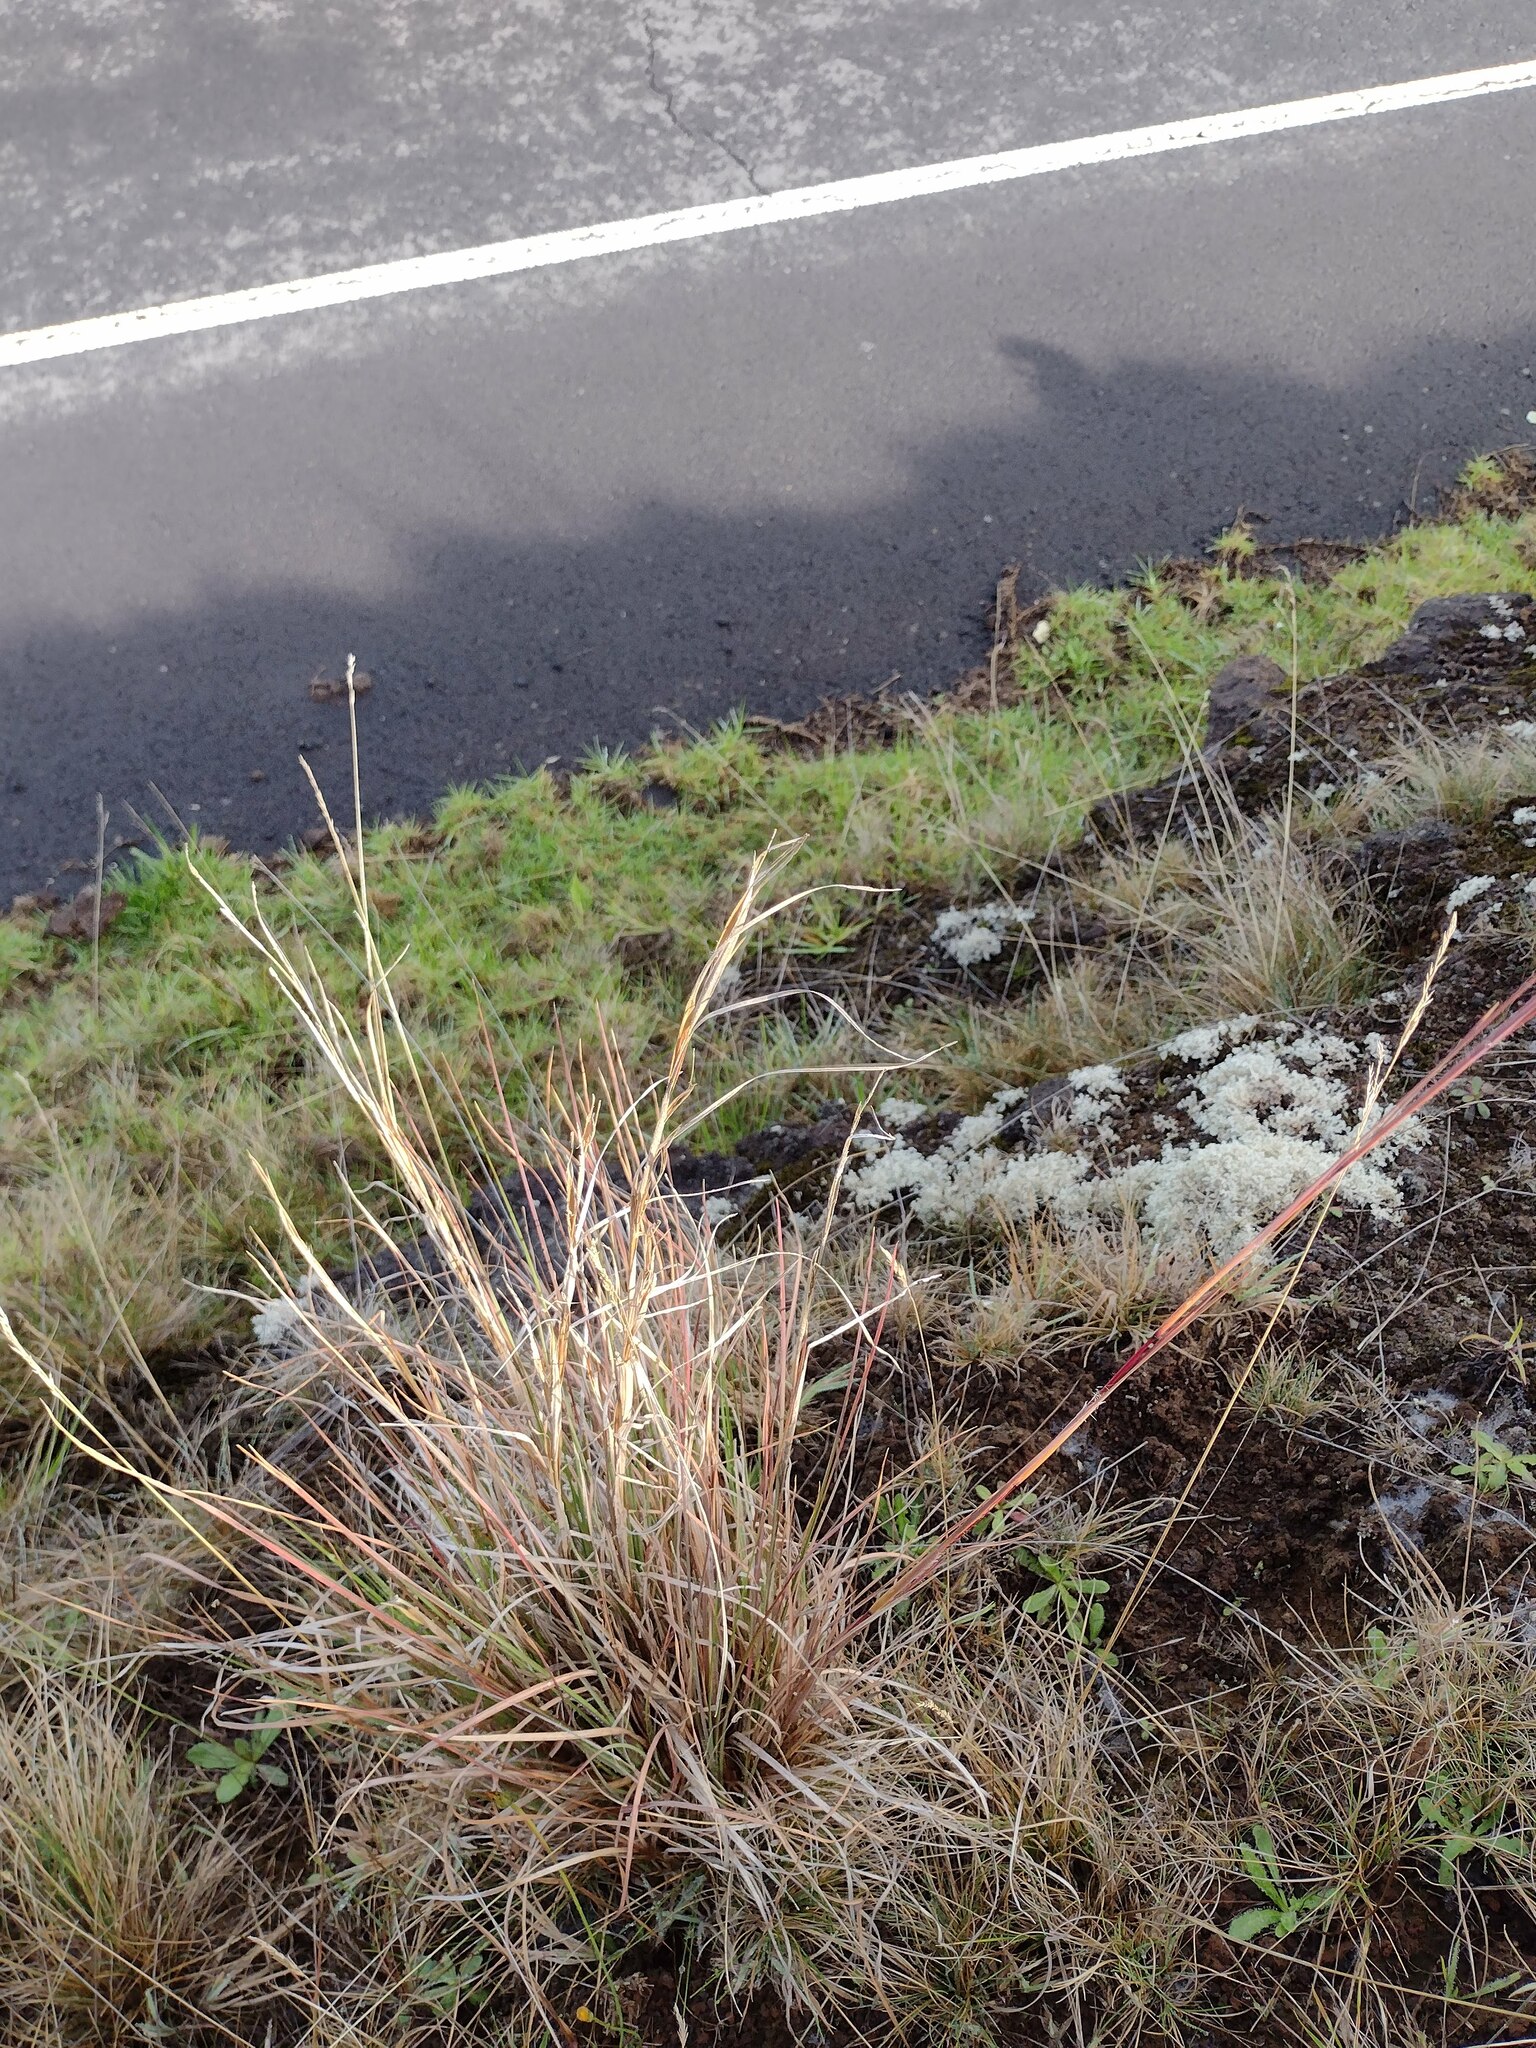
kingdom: Plantae
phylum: Tracheophyta
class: Liliopsida
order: Poales
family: Poaceae
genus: Andropogon
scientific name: Andropogon virginicus
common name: Broomsedge bluestem
